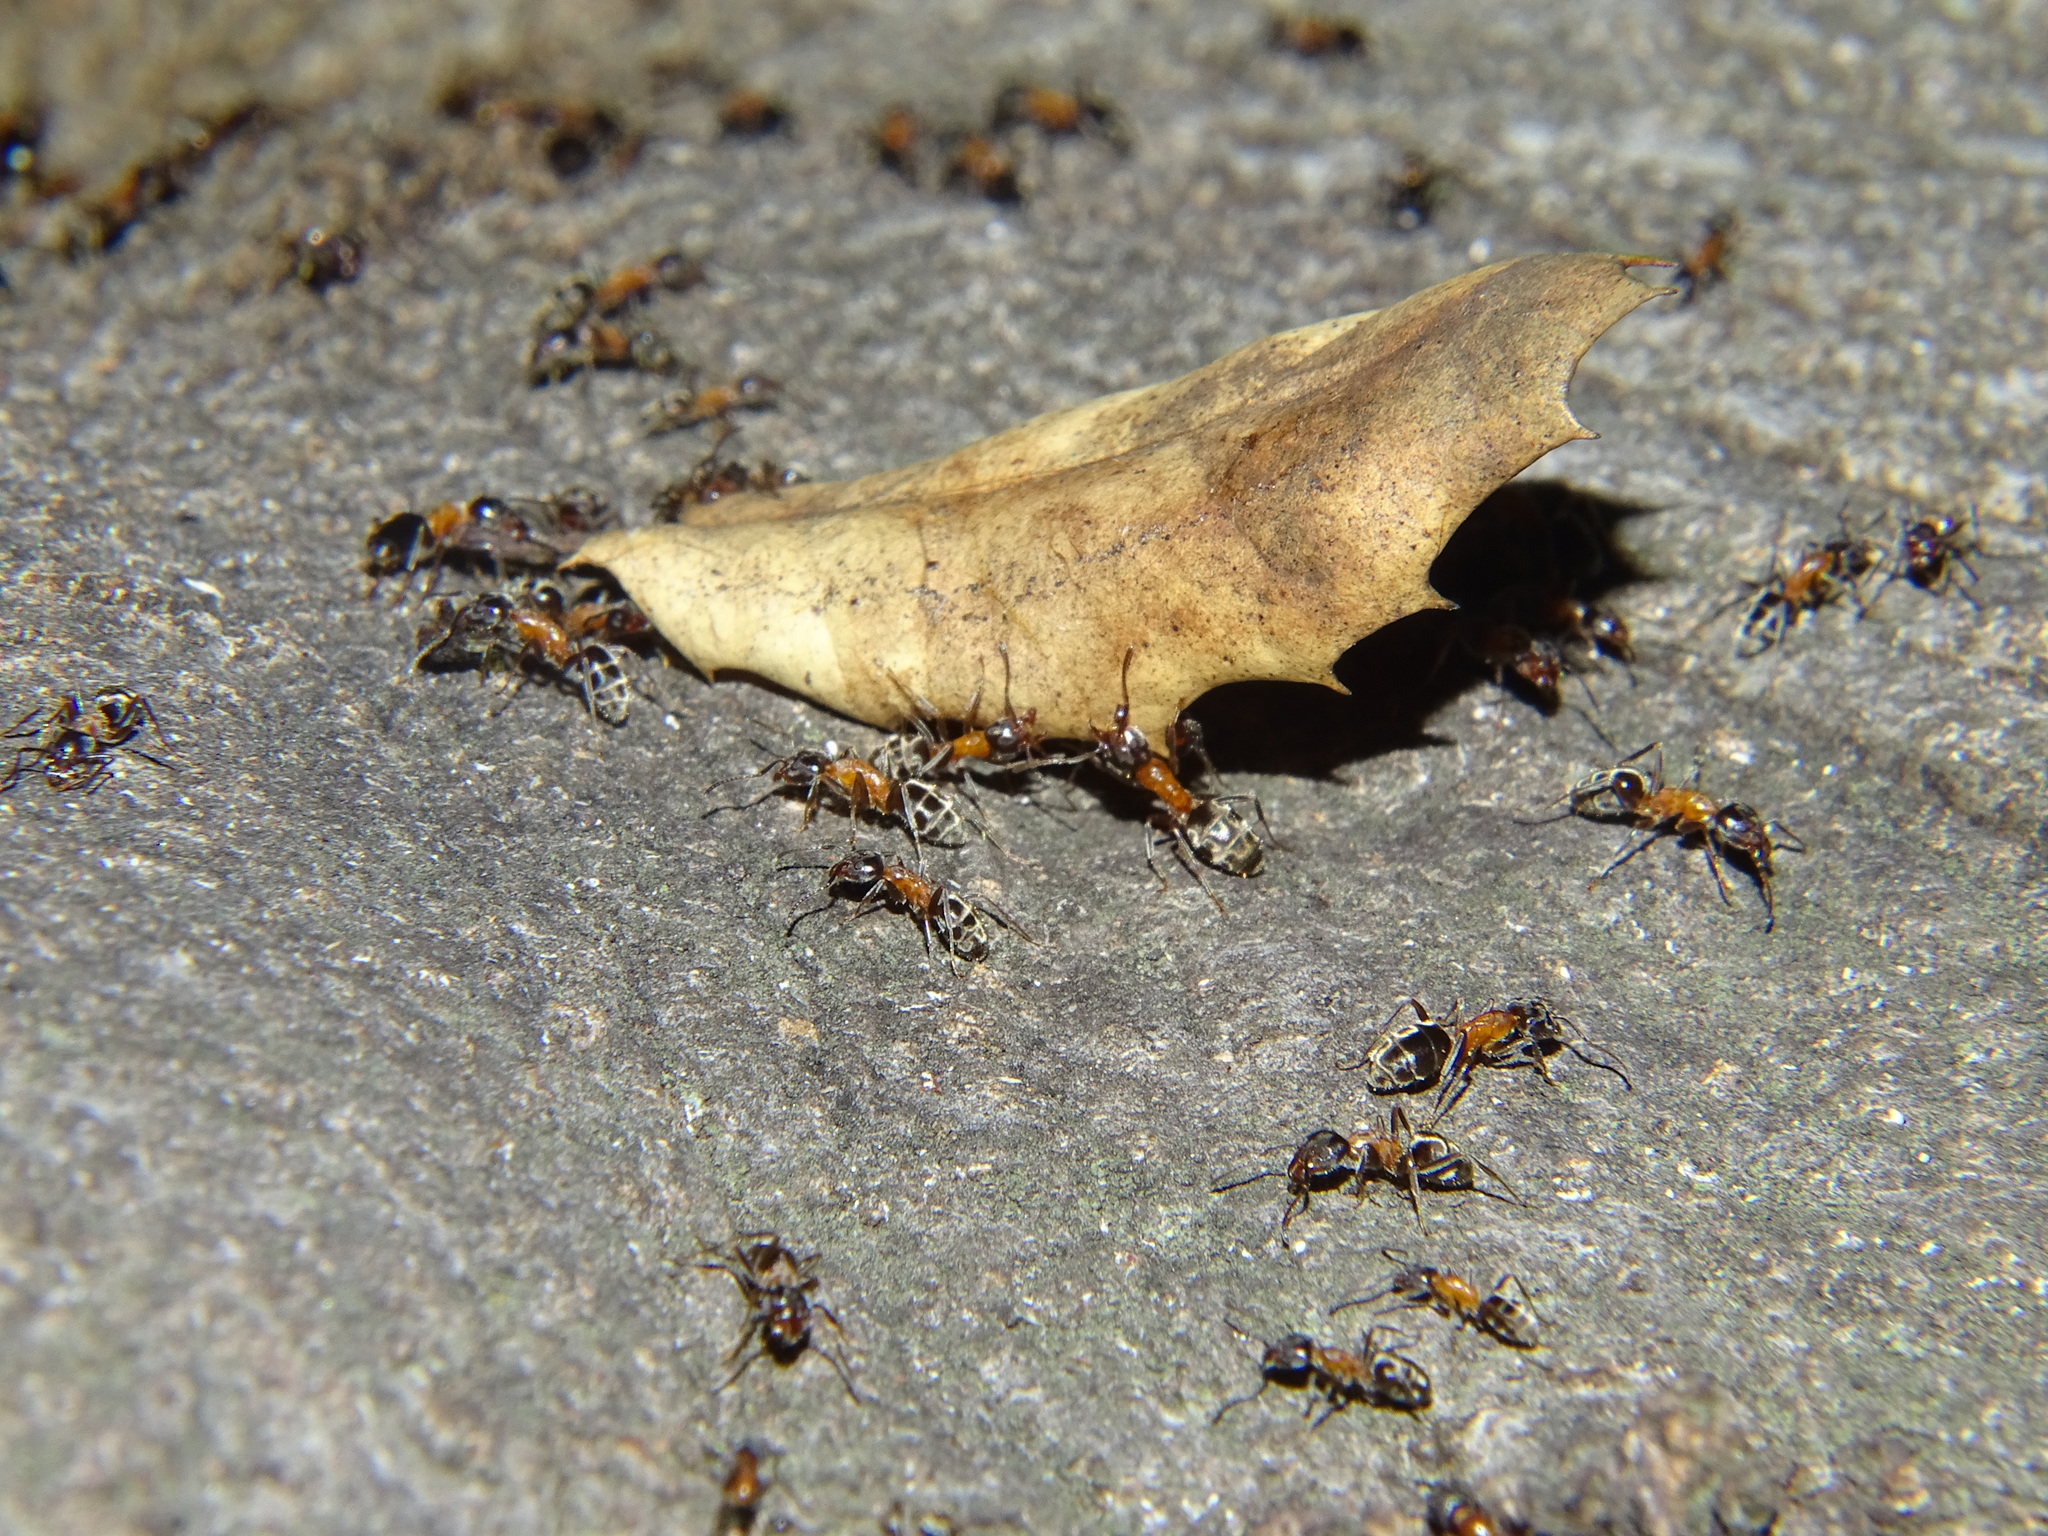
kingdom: Animalia
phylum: Arthropoda
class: Insecta
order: Hymenoptera
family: Formicidae
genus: Liometopum
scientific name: Liometopum occidentale
